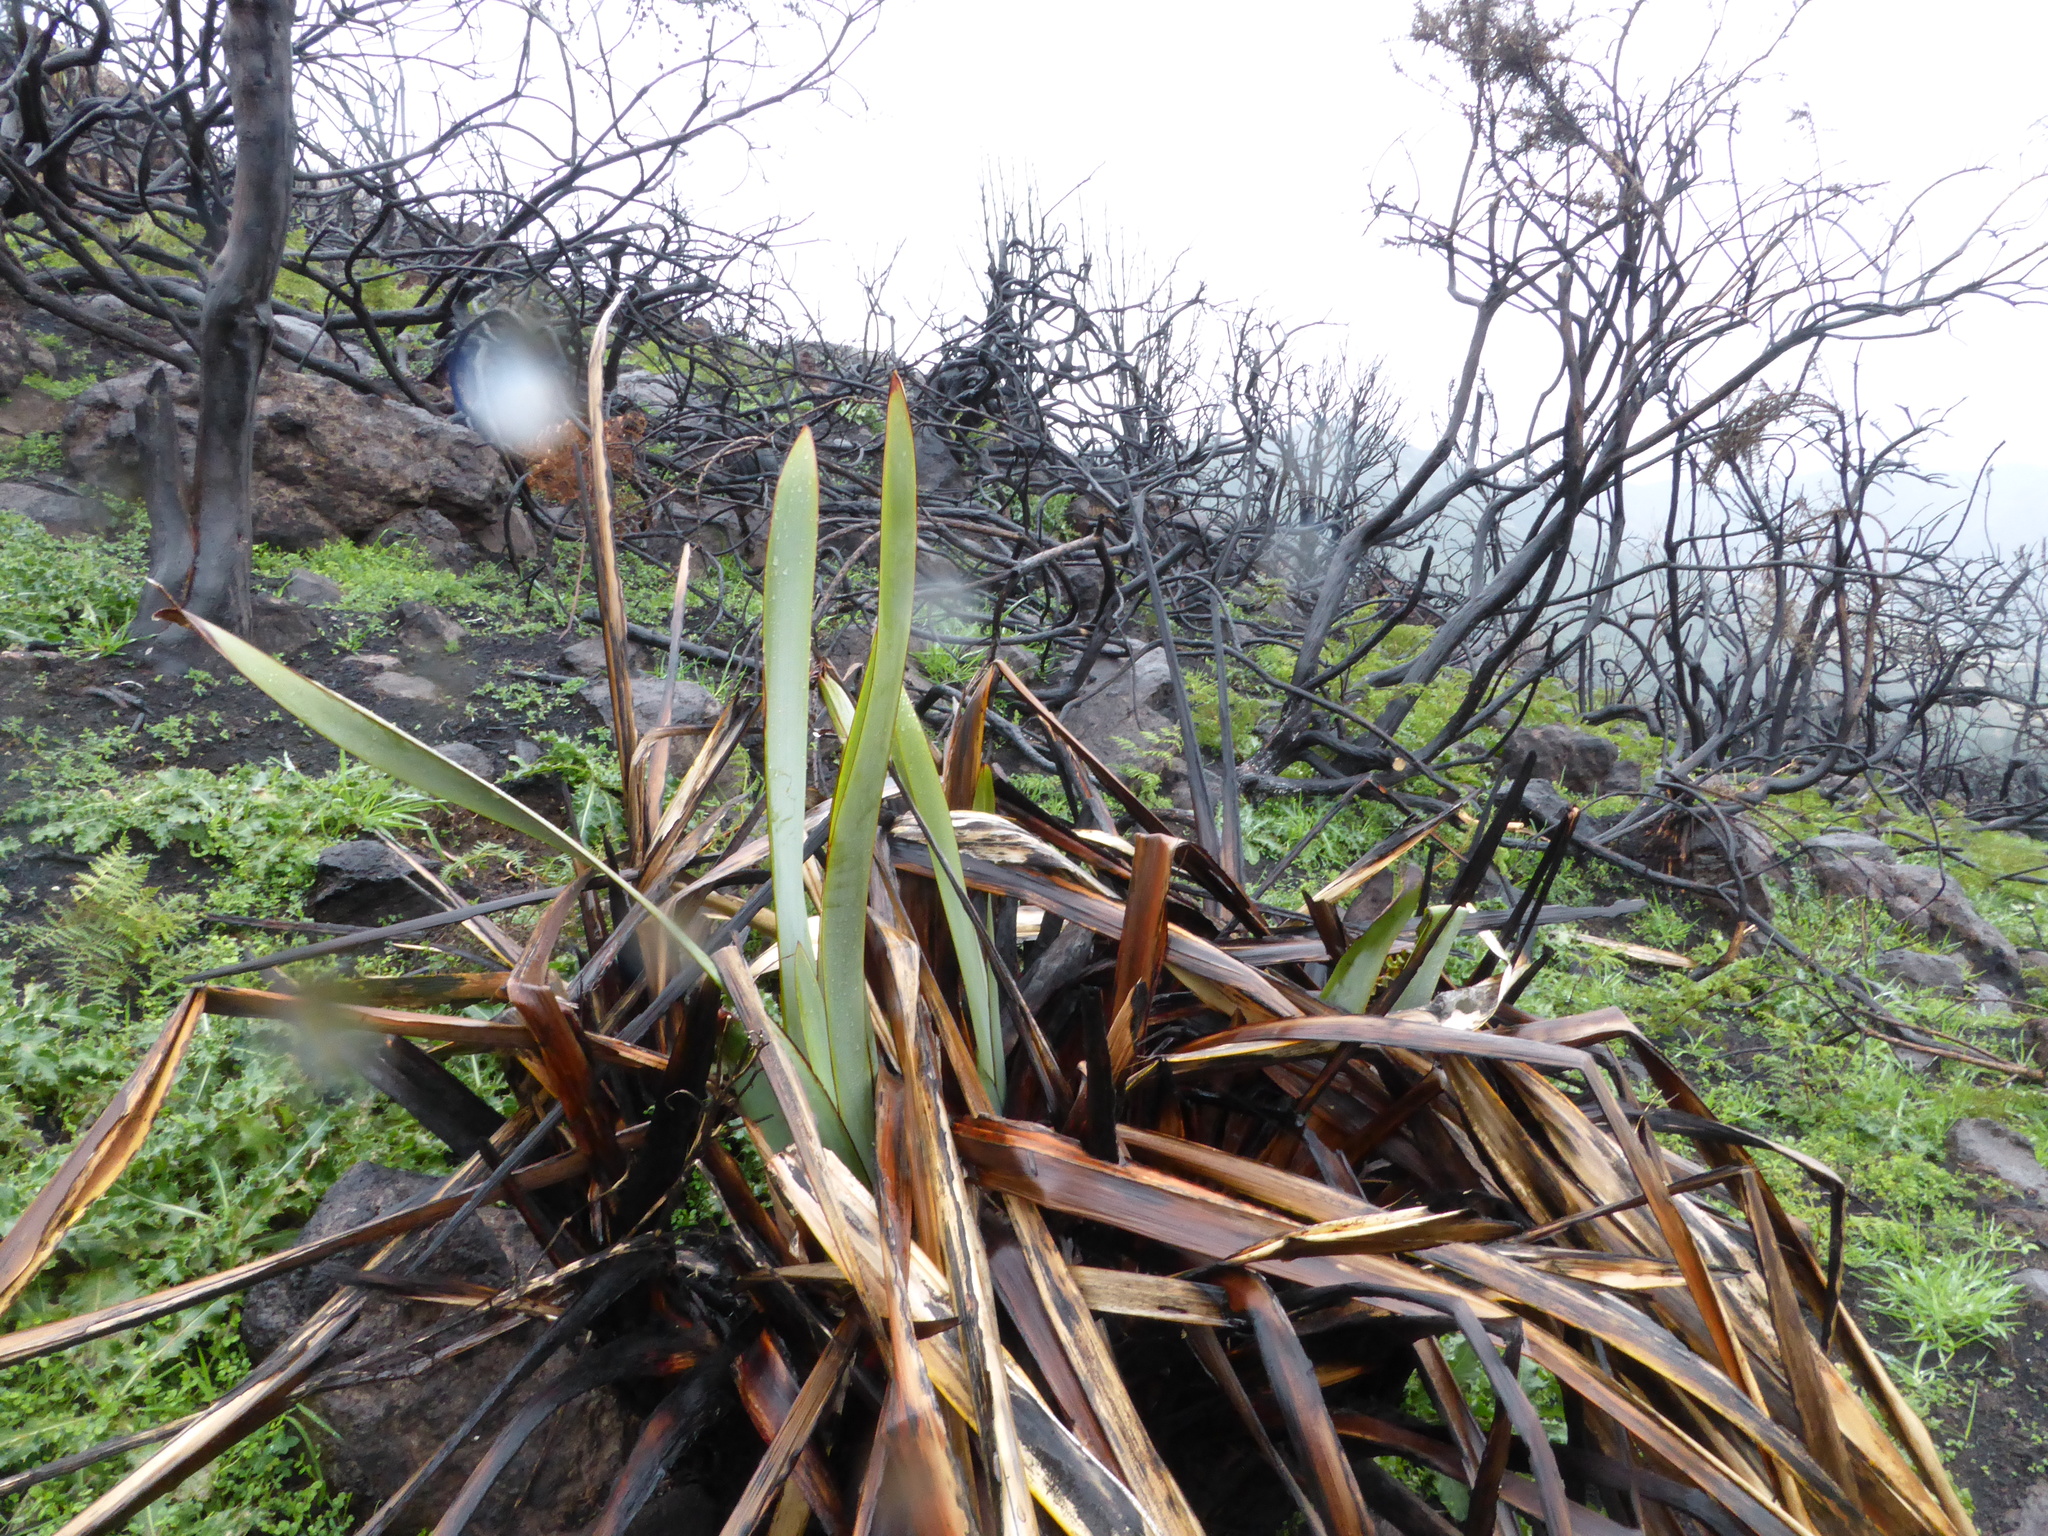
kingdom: Plantae
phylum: Tracheophyta
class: Liliopsida
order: Asparagales
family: Asphodelaceae
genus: Phormium
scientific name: Phormium tenax
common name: New zealand flax
